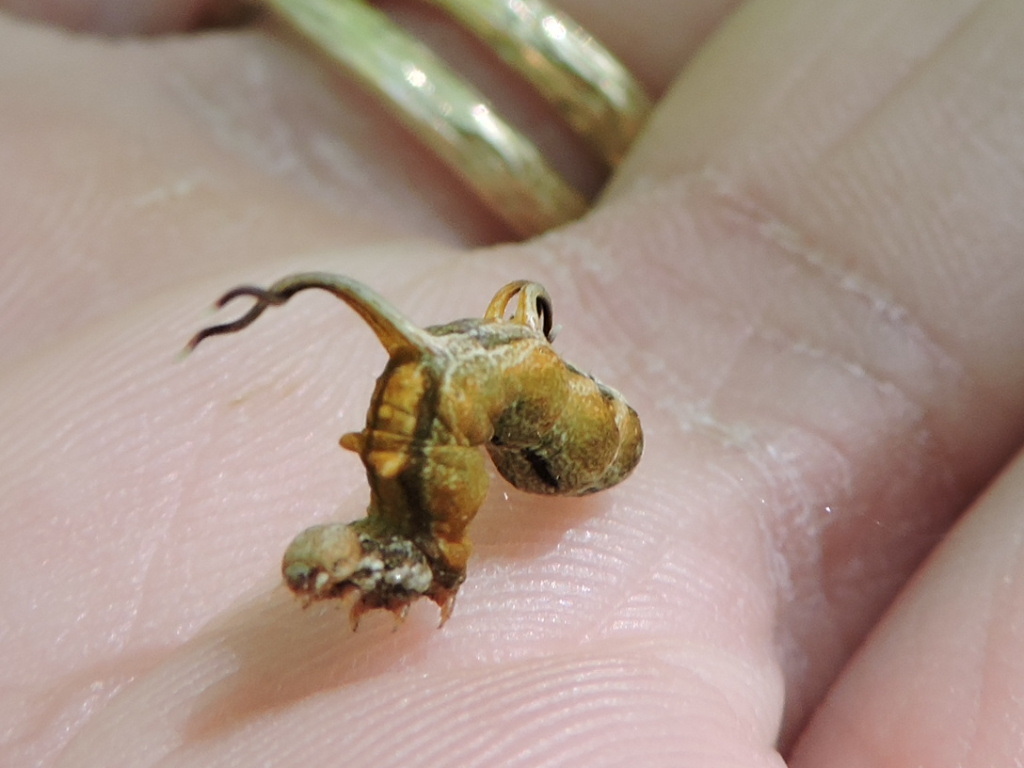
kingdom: Animalia
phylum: Arthropoda
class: Insecta
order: Lepidoptera
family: Geometridae
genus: Nematocampa
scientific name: Nematocampa resistaria
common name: Horned spanworm moth
